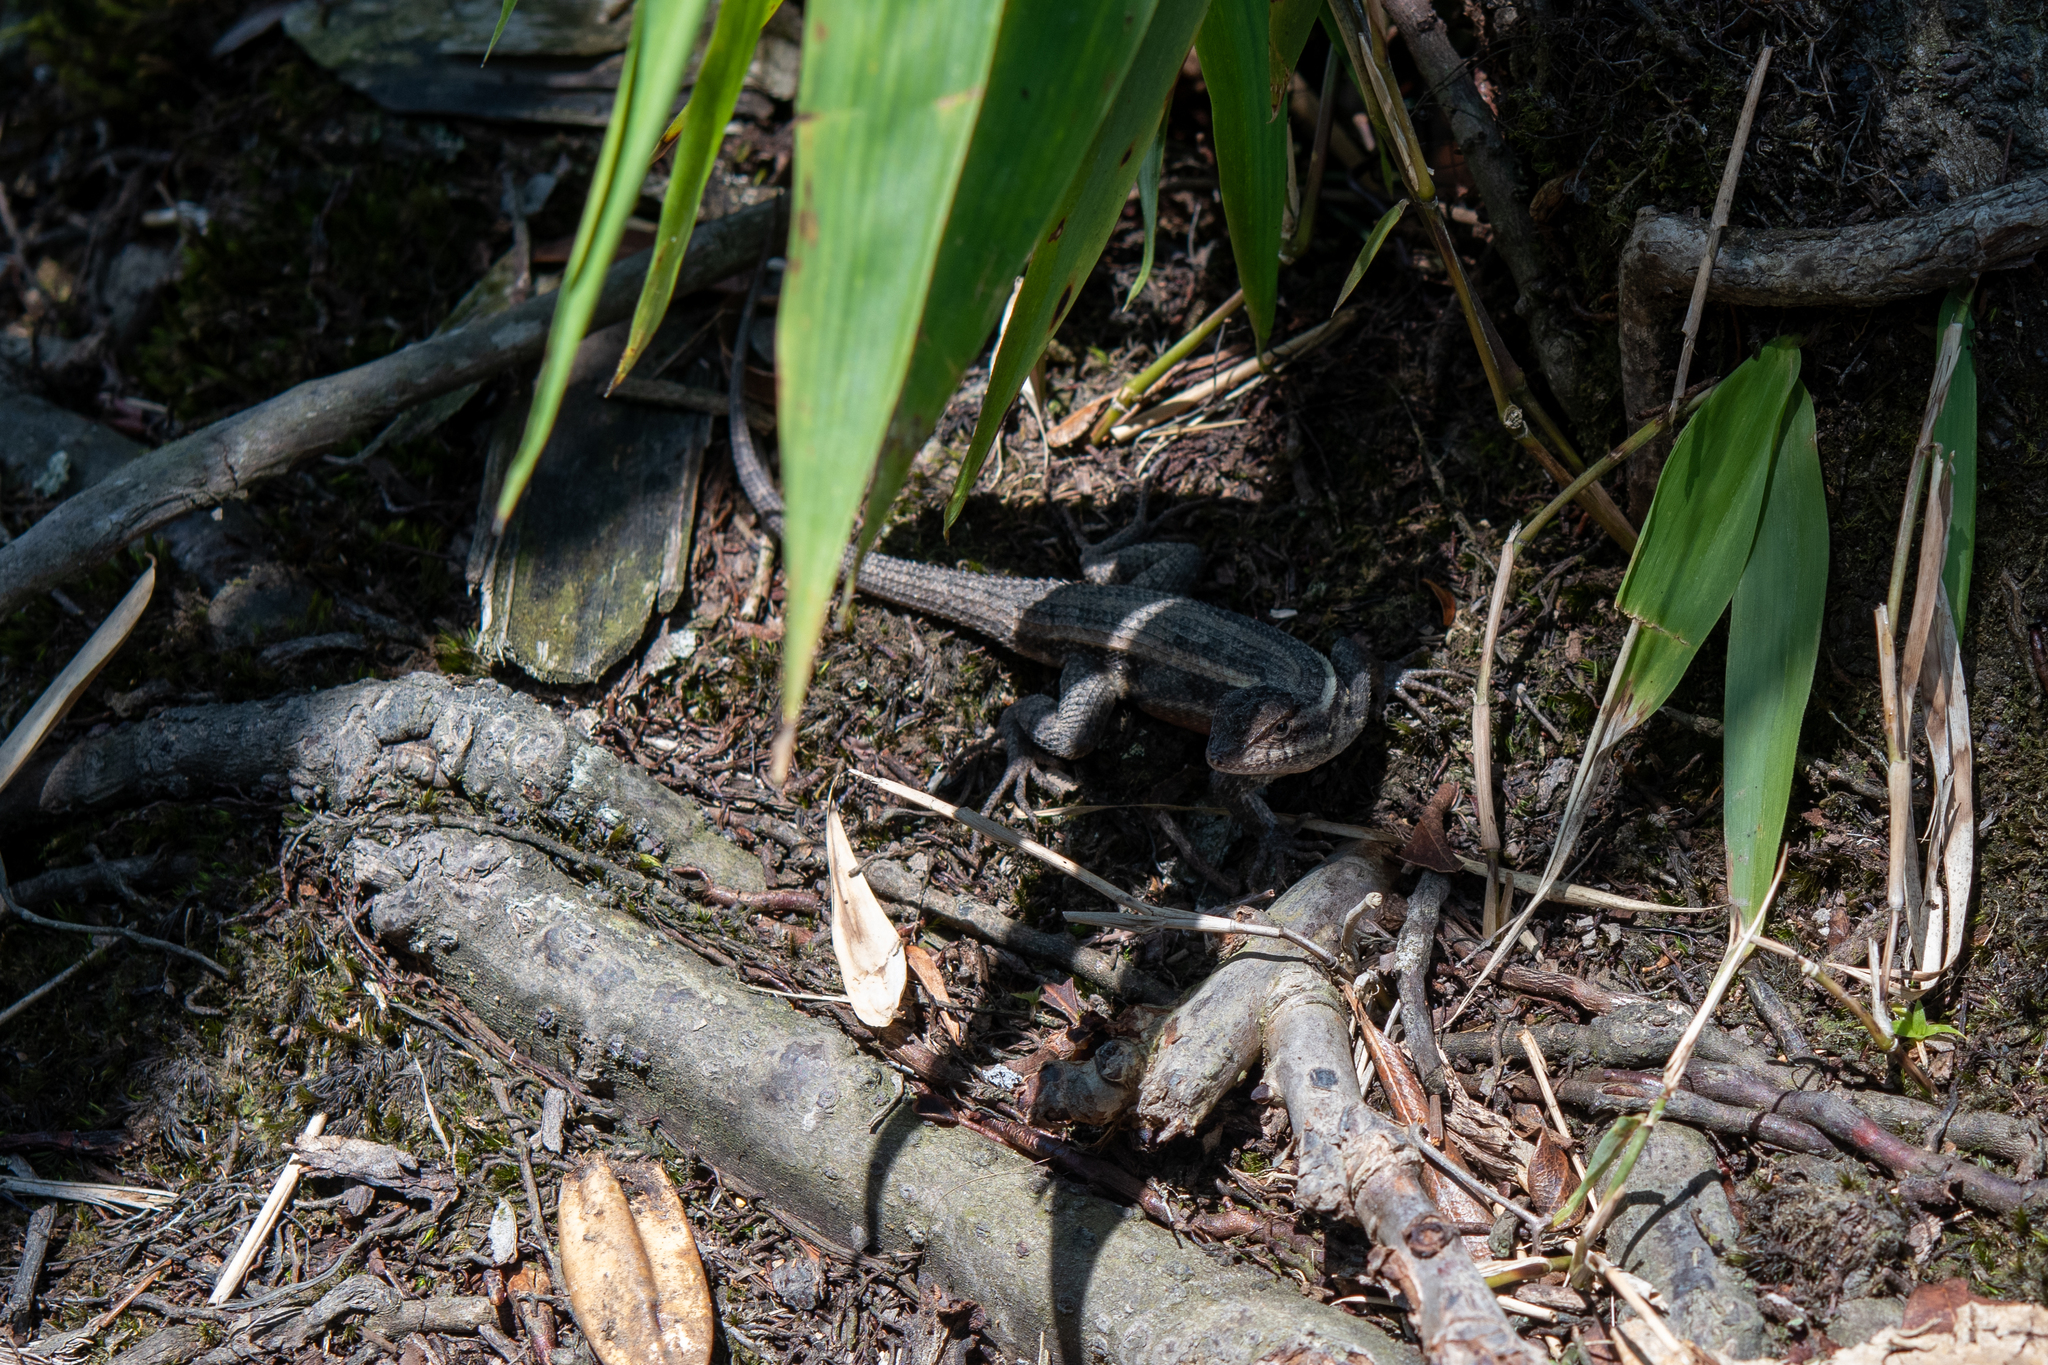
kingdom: Animalia
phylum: Chordata
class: Squamata
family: Phrynosomatidae
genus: Sceloporus
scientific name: Sceloporus variabilis
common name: Rosebelly lizard
